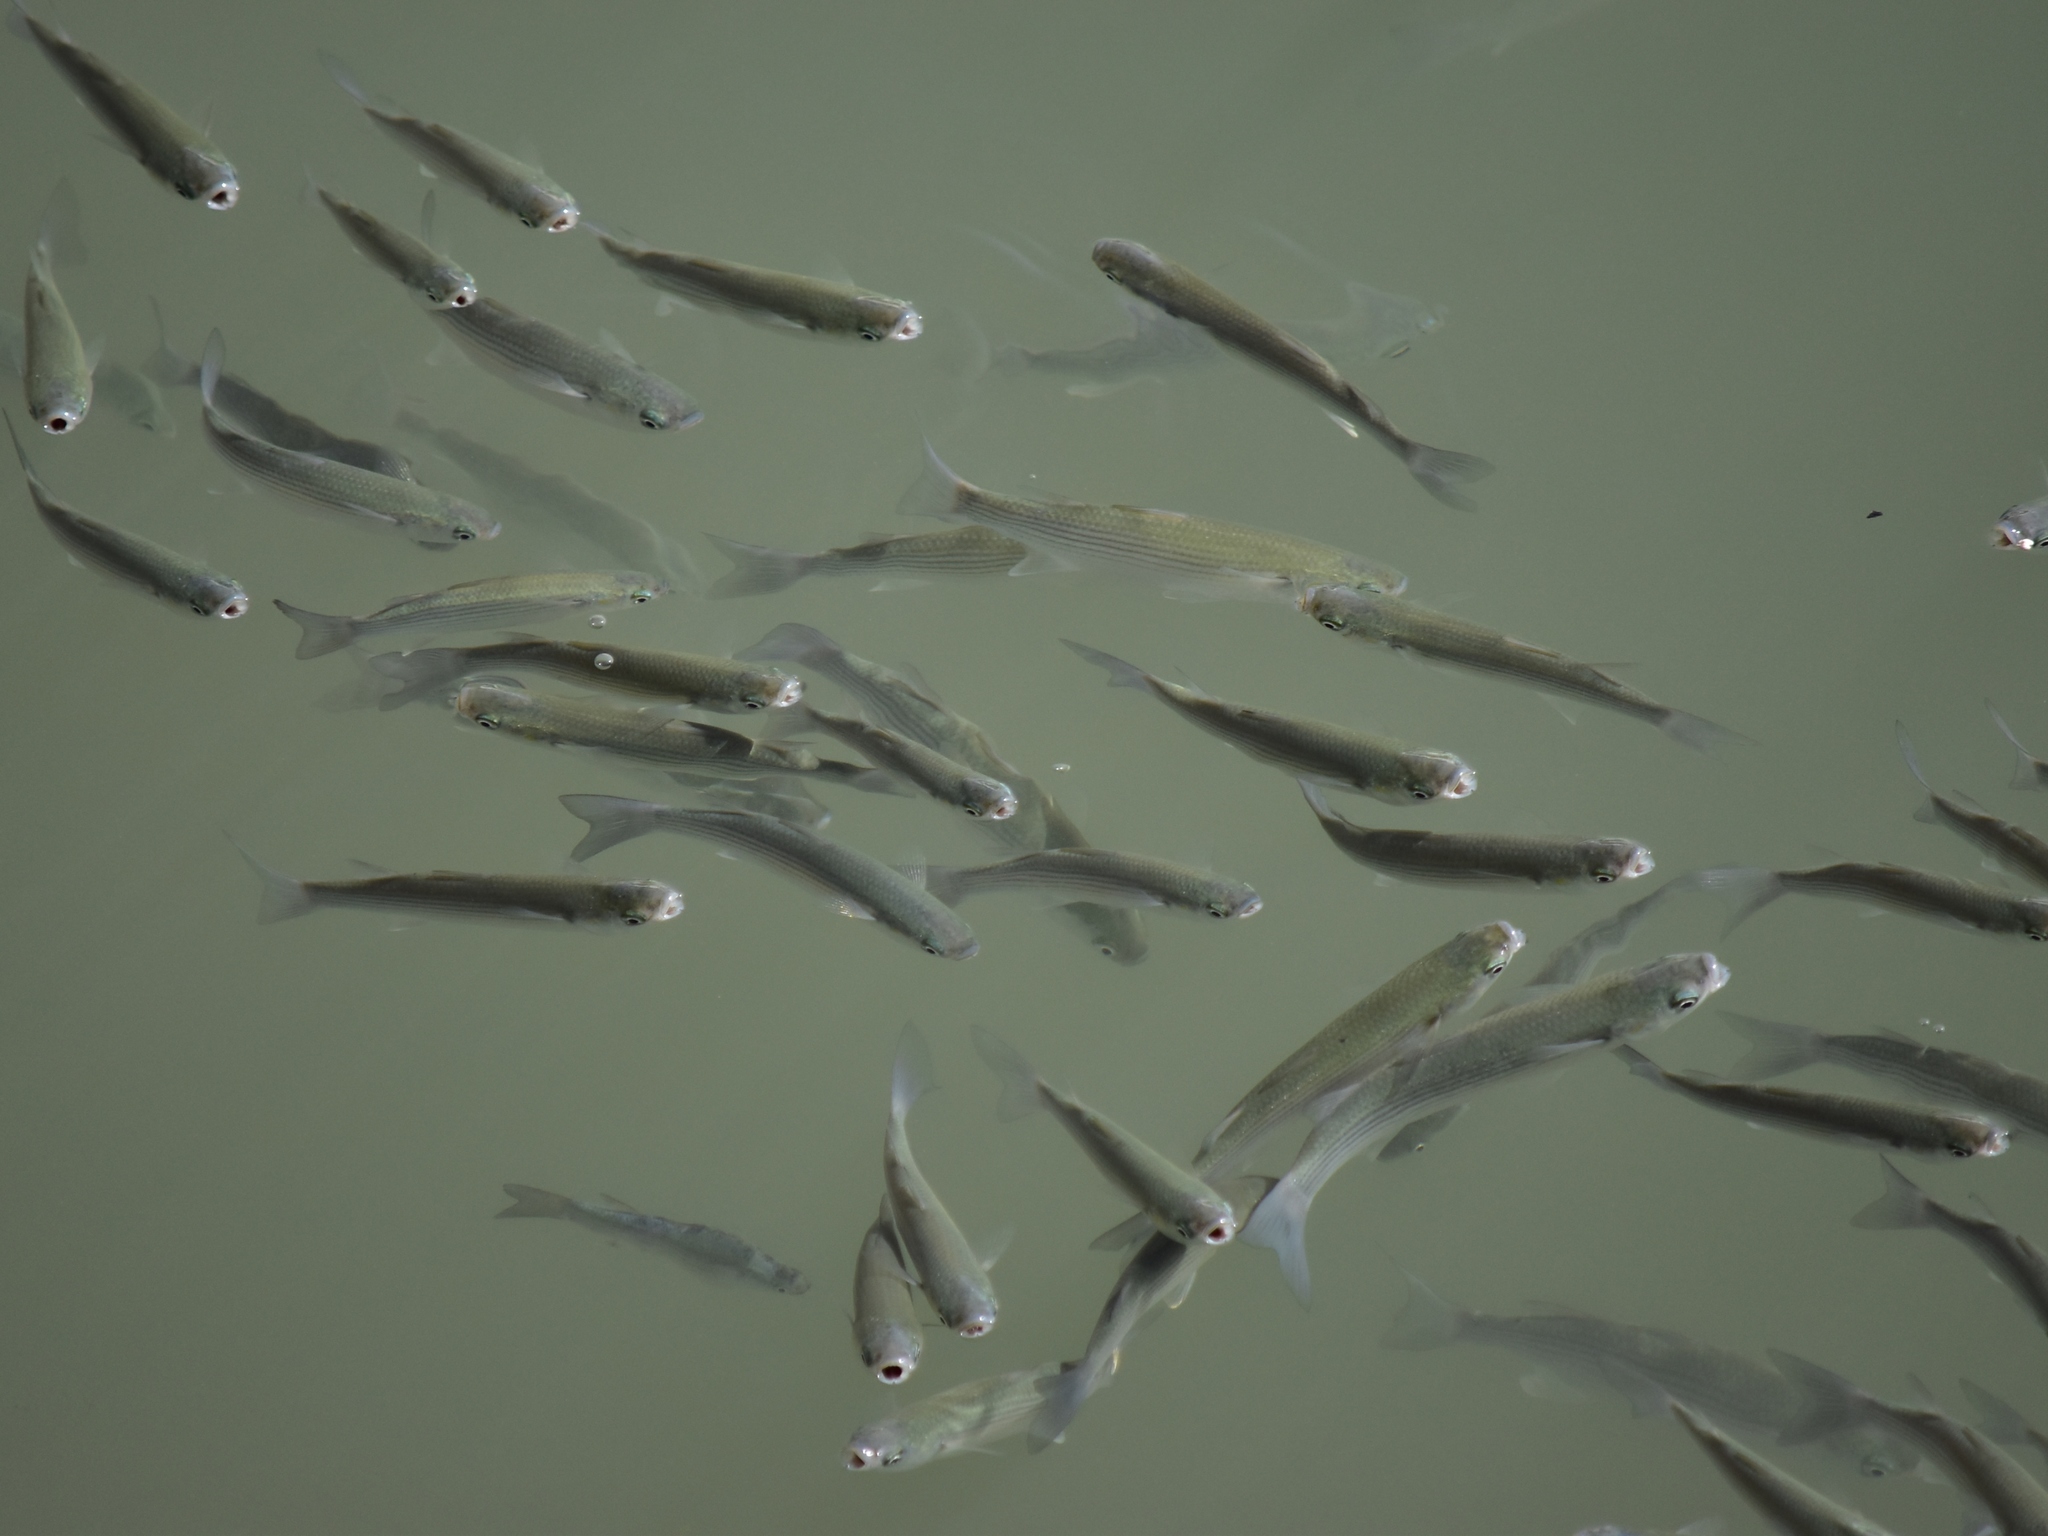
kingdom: Animalia
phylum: Chordata
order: Mugiliformes
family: Mugilidae
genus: Chelon
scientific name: Chelon
